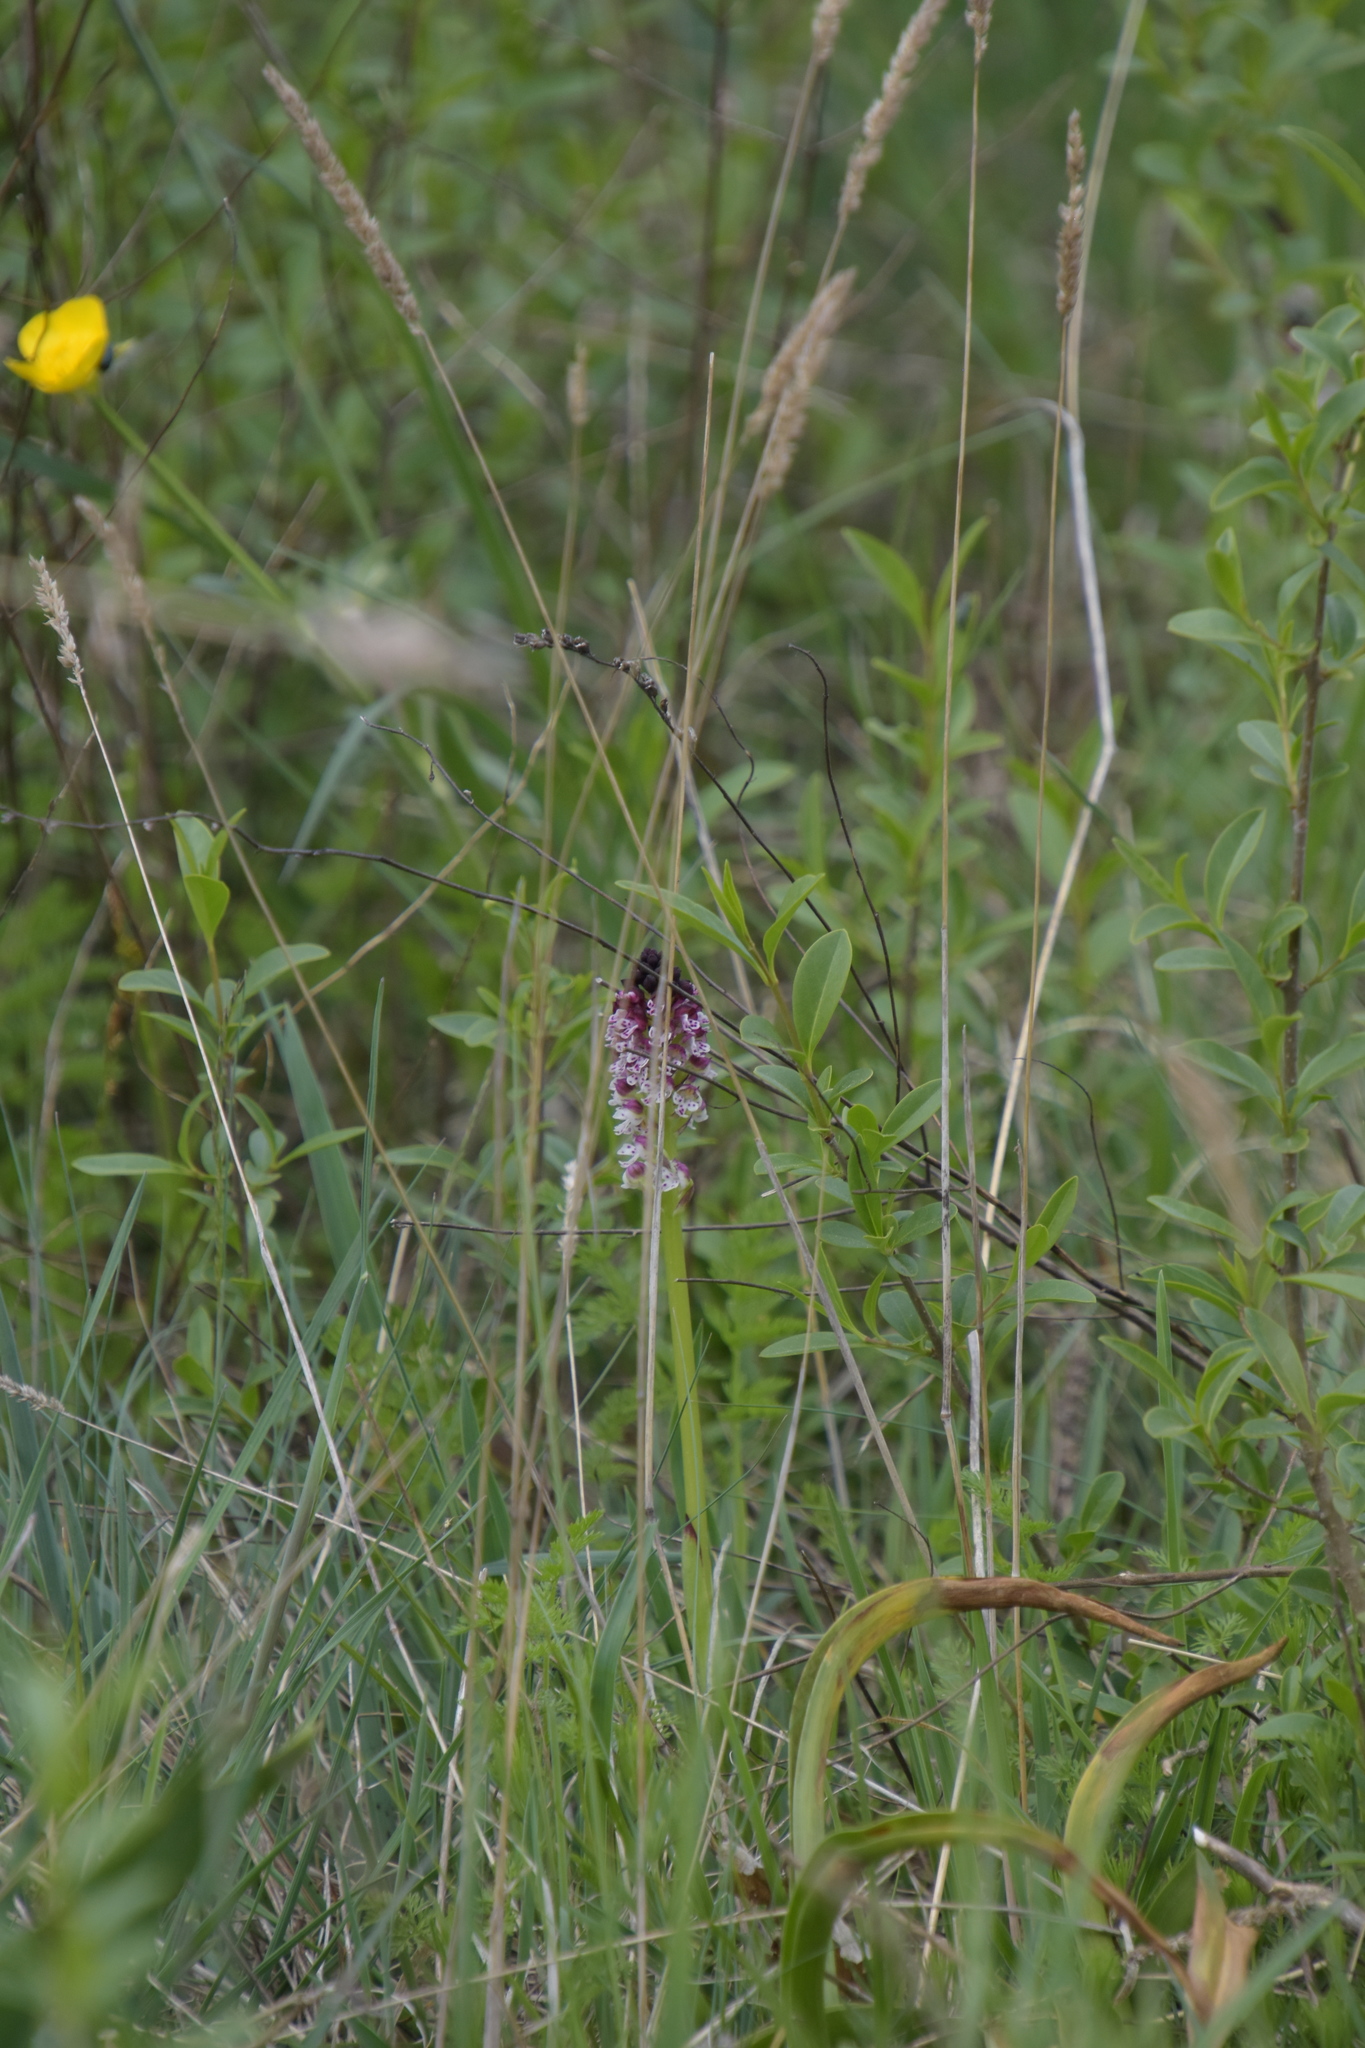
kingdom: Plantae
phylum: Tracheophyta
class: Liliopsida
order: Asparagales
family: Orchidaceae
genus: Neotinea
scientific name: Neotinea ustulata
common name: Burnt orchid
